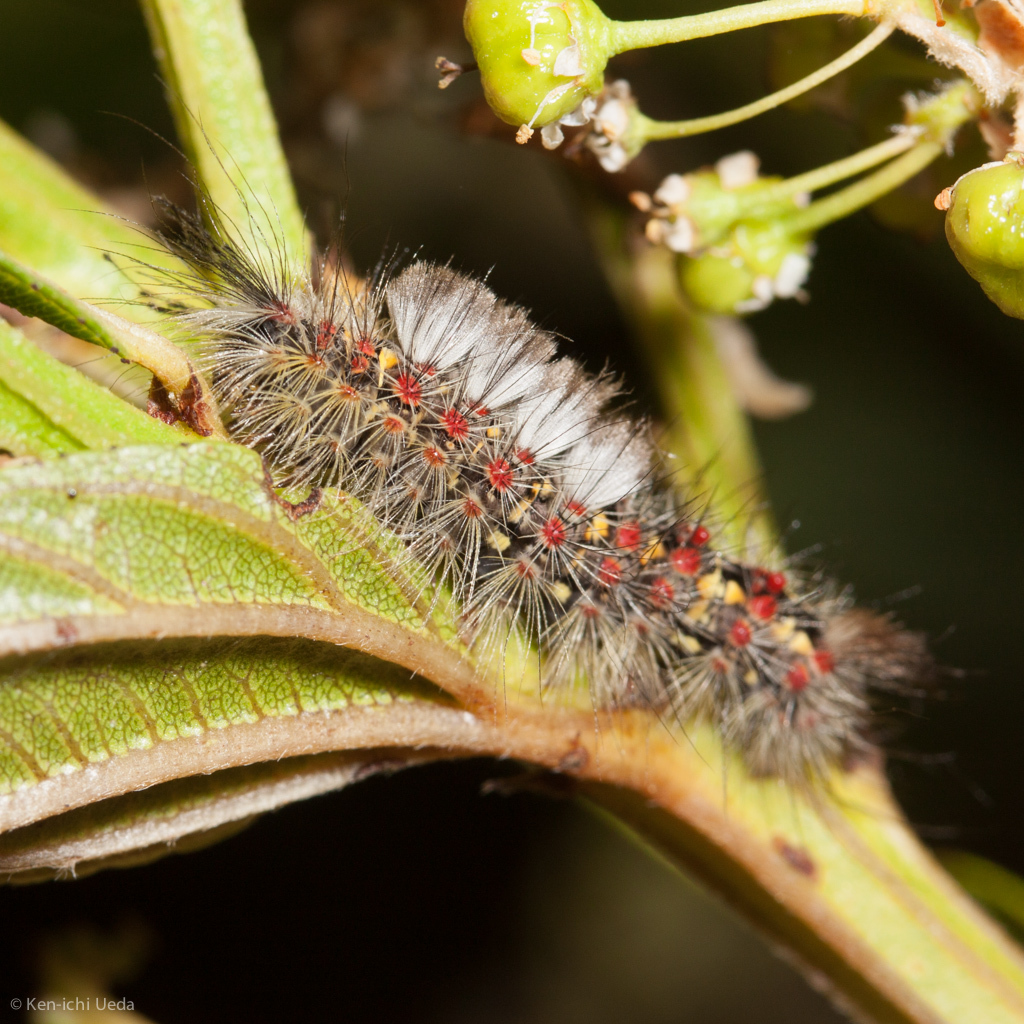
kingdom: Animalia
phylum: Arthropoda
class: Insecta
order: Lepidoptera
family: Erebidae
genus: Orgyia
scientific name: Orgyia vetusta
